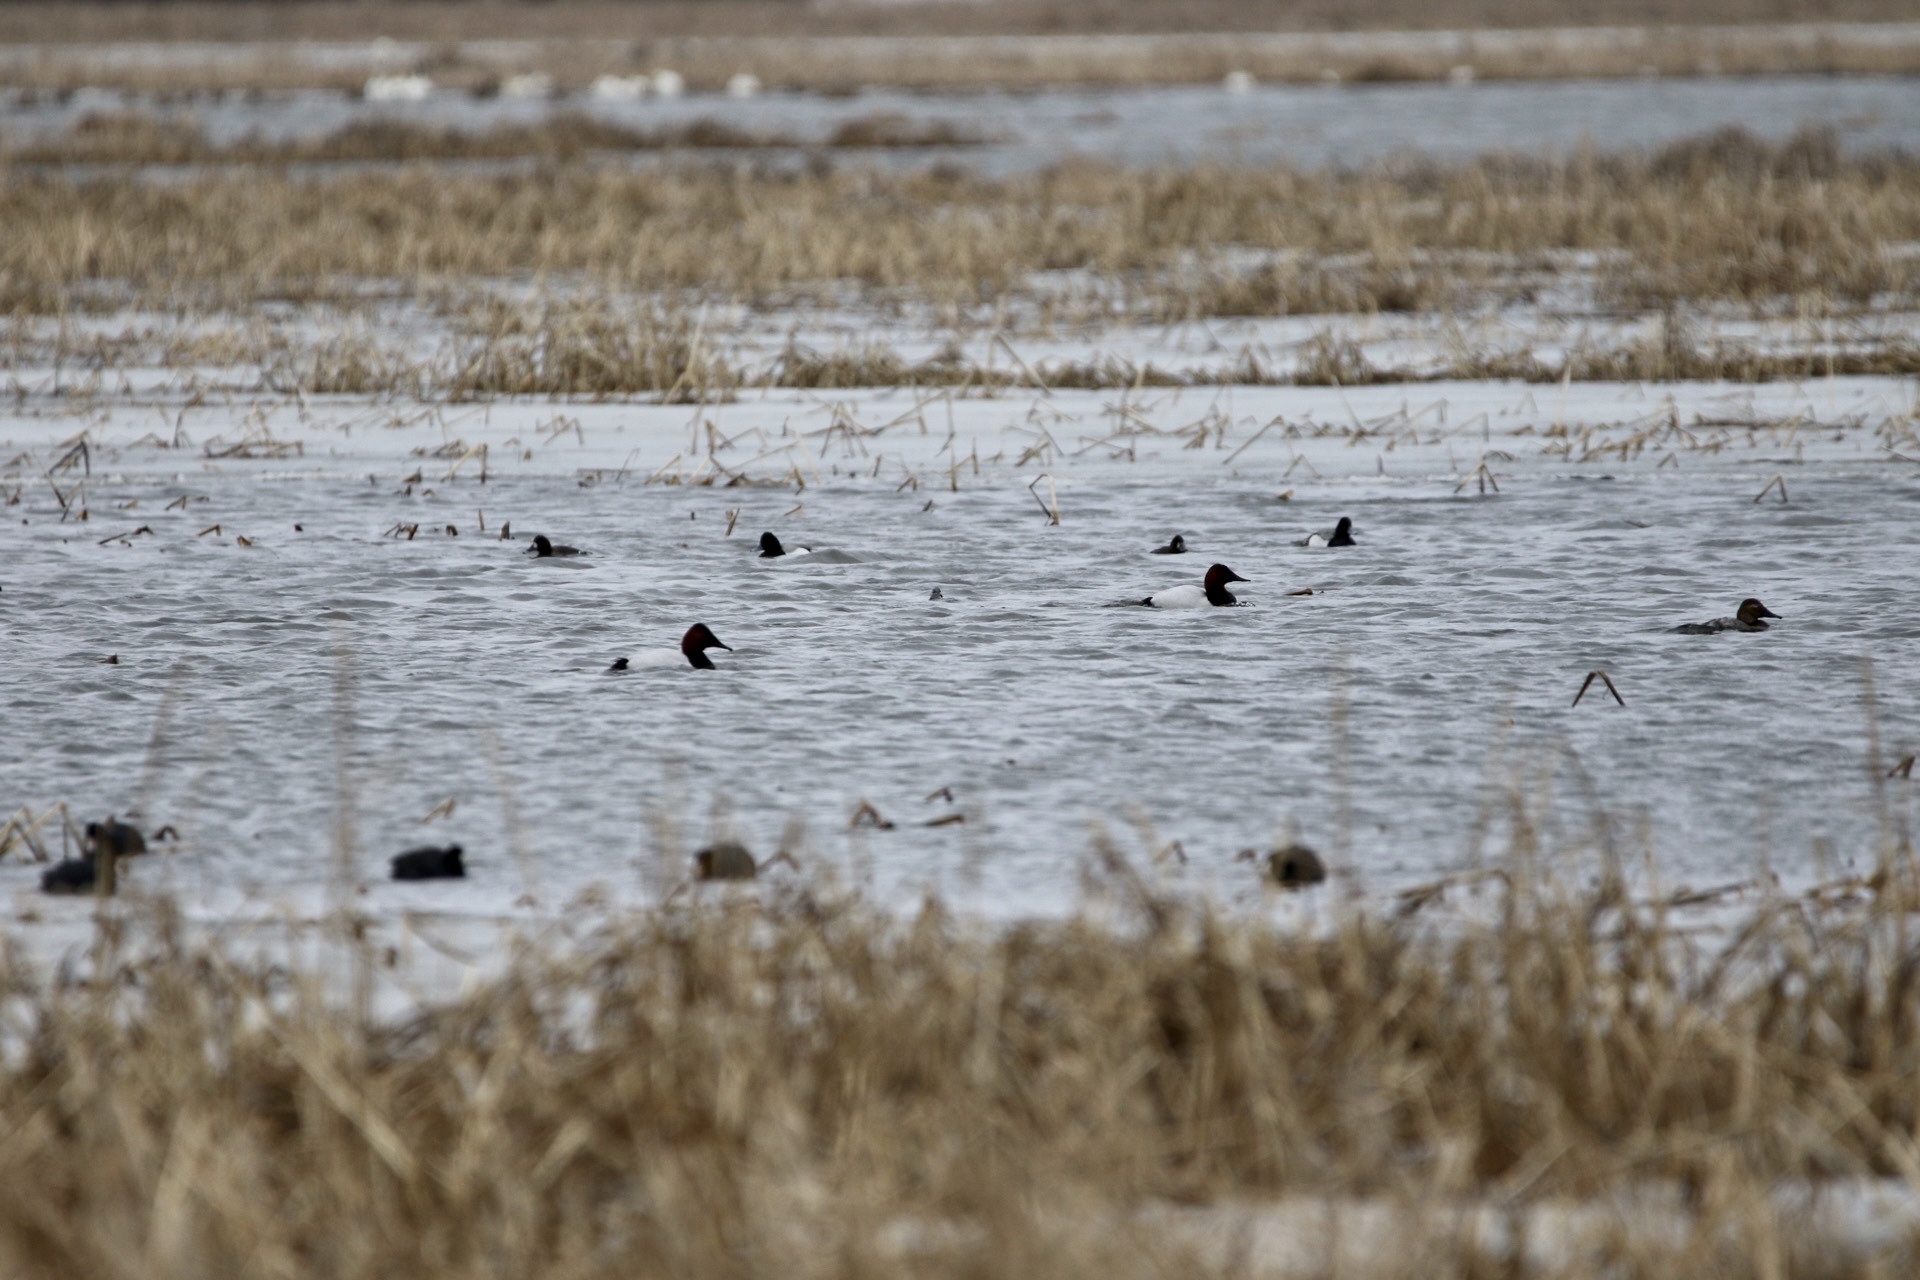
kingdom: Animalia
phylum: Chordata
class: Aves
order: Anseriformes
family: Anatidae
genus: Aythya
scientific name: Aythya valisineria
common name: Canvasback
